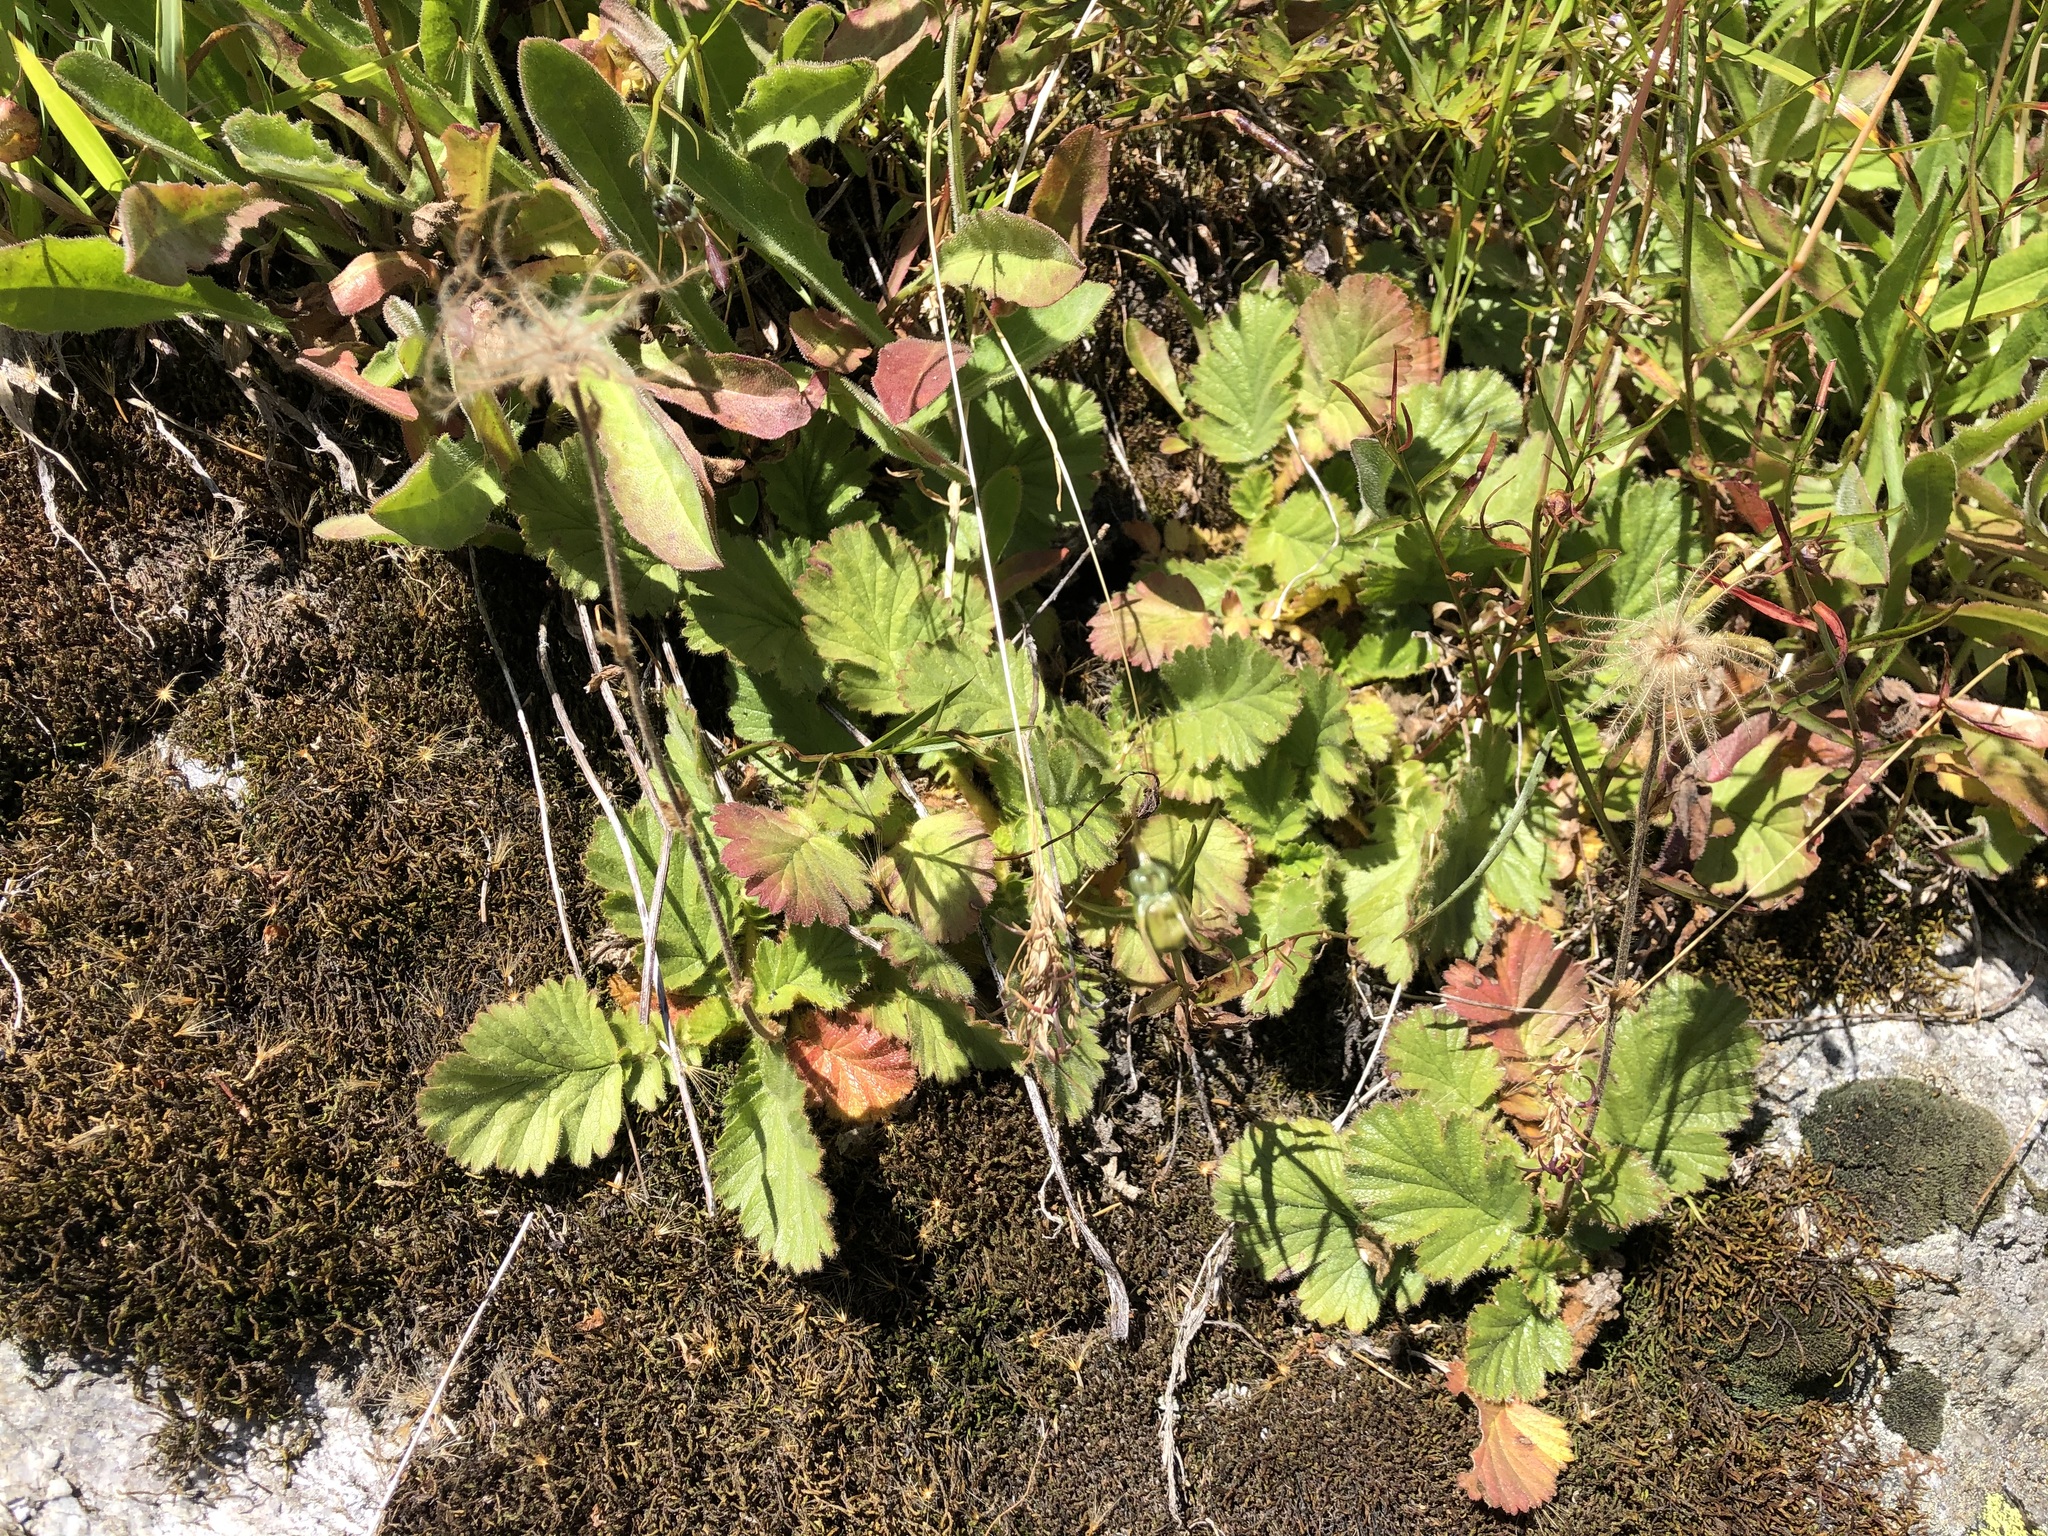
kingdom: Plantae
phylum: Tracheophyta
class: Magnoliopsida
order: Rosales
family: Rosaceae
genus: Geum
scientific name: Geum montanum
